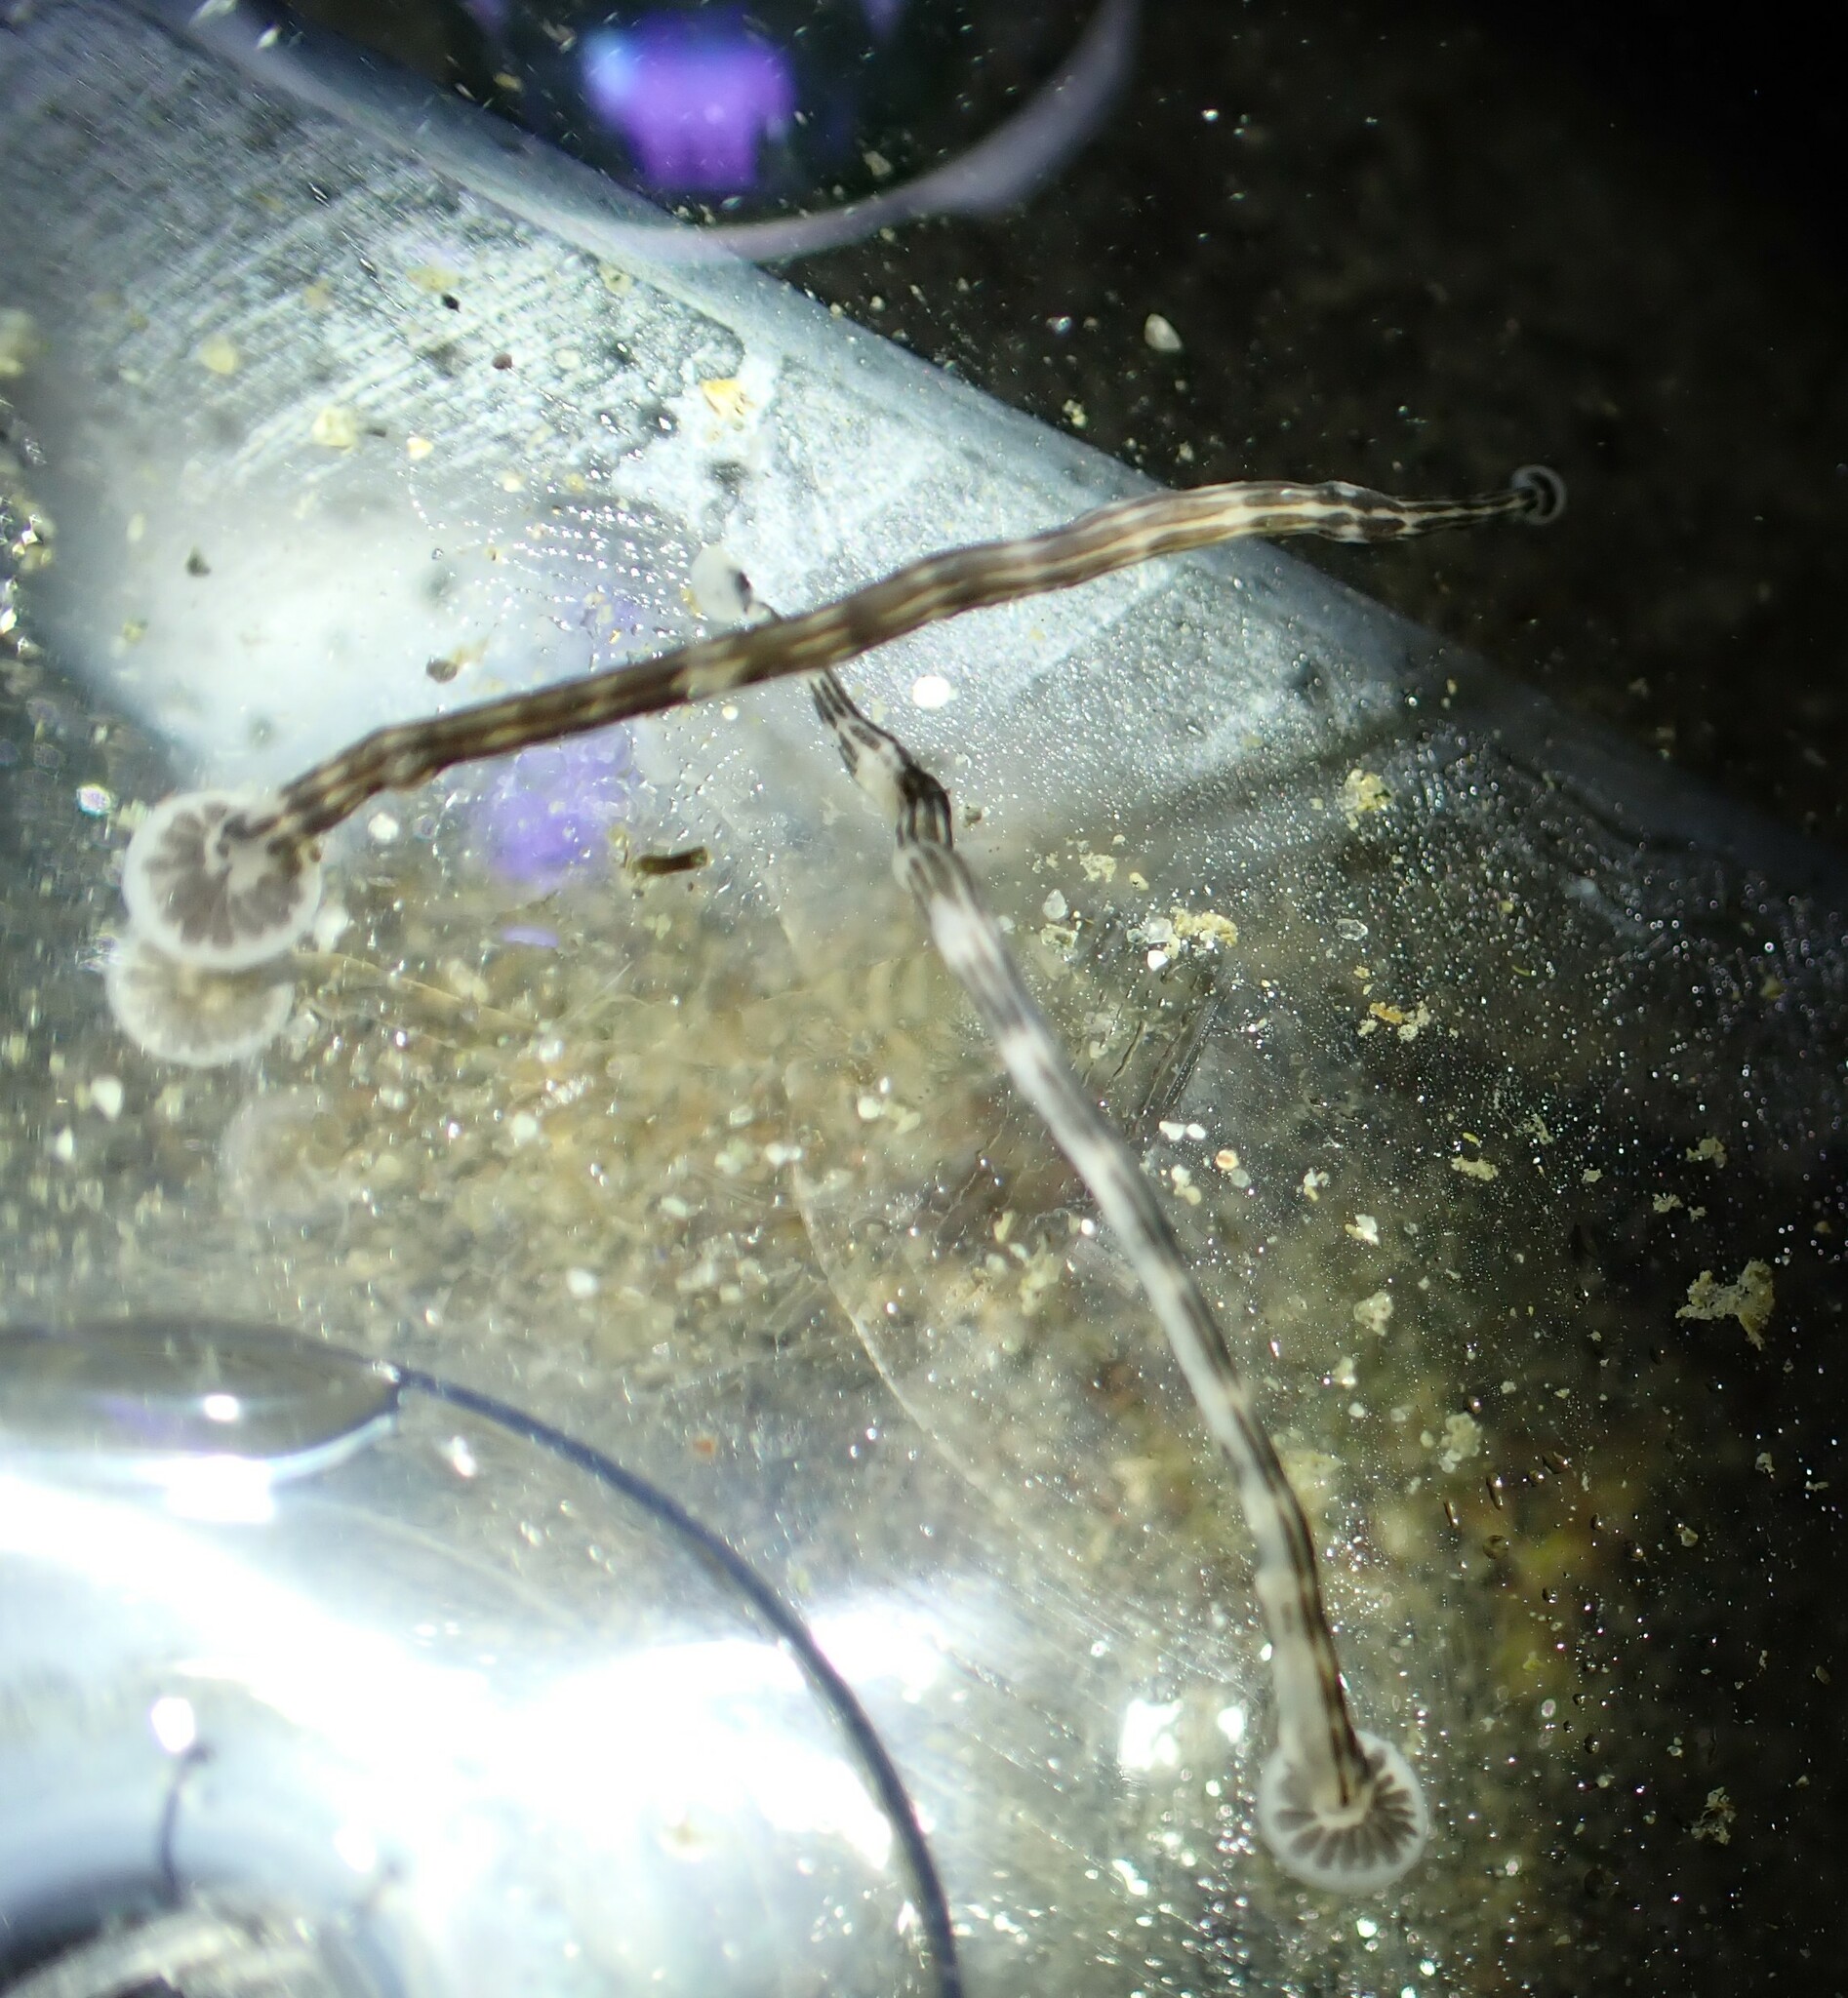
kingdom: Animalia
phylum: Annelida
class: Clitellata
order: Rhynchobdellida
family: Piscicolidae
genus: Heptacyclus
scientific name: Heptacyclus virgatus
